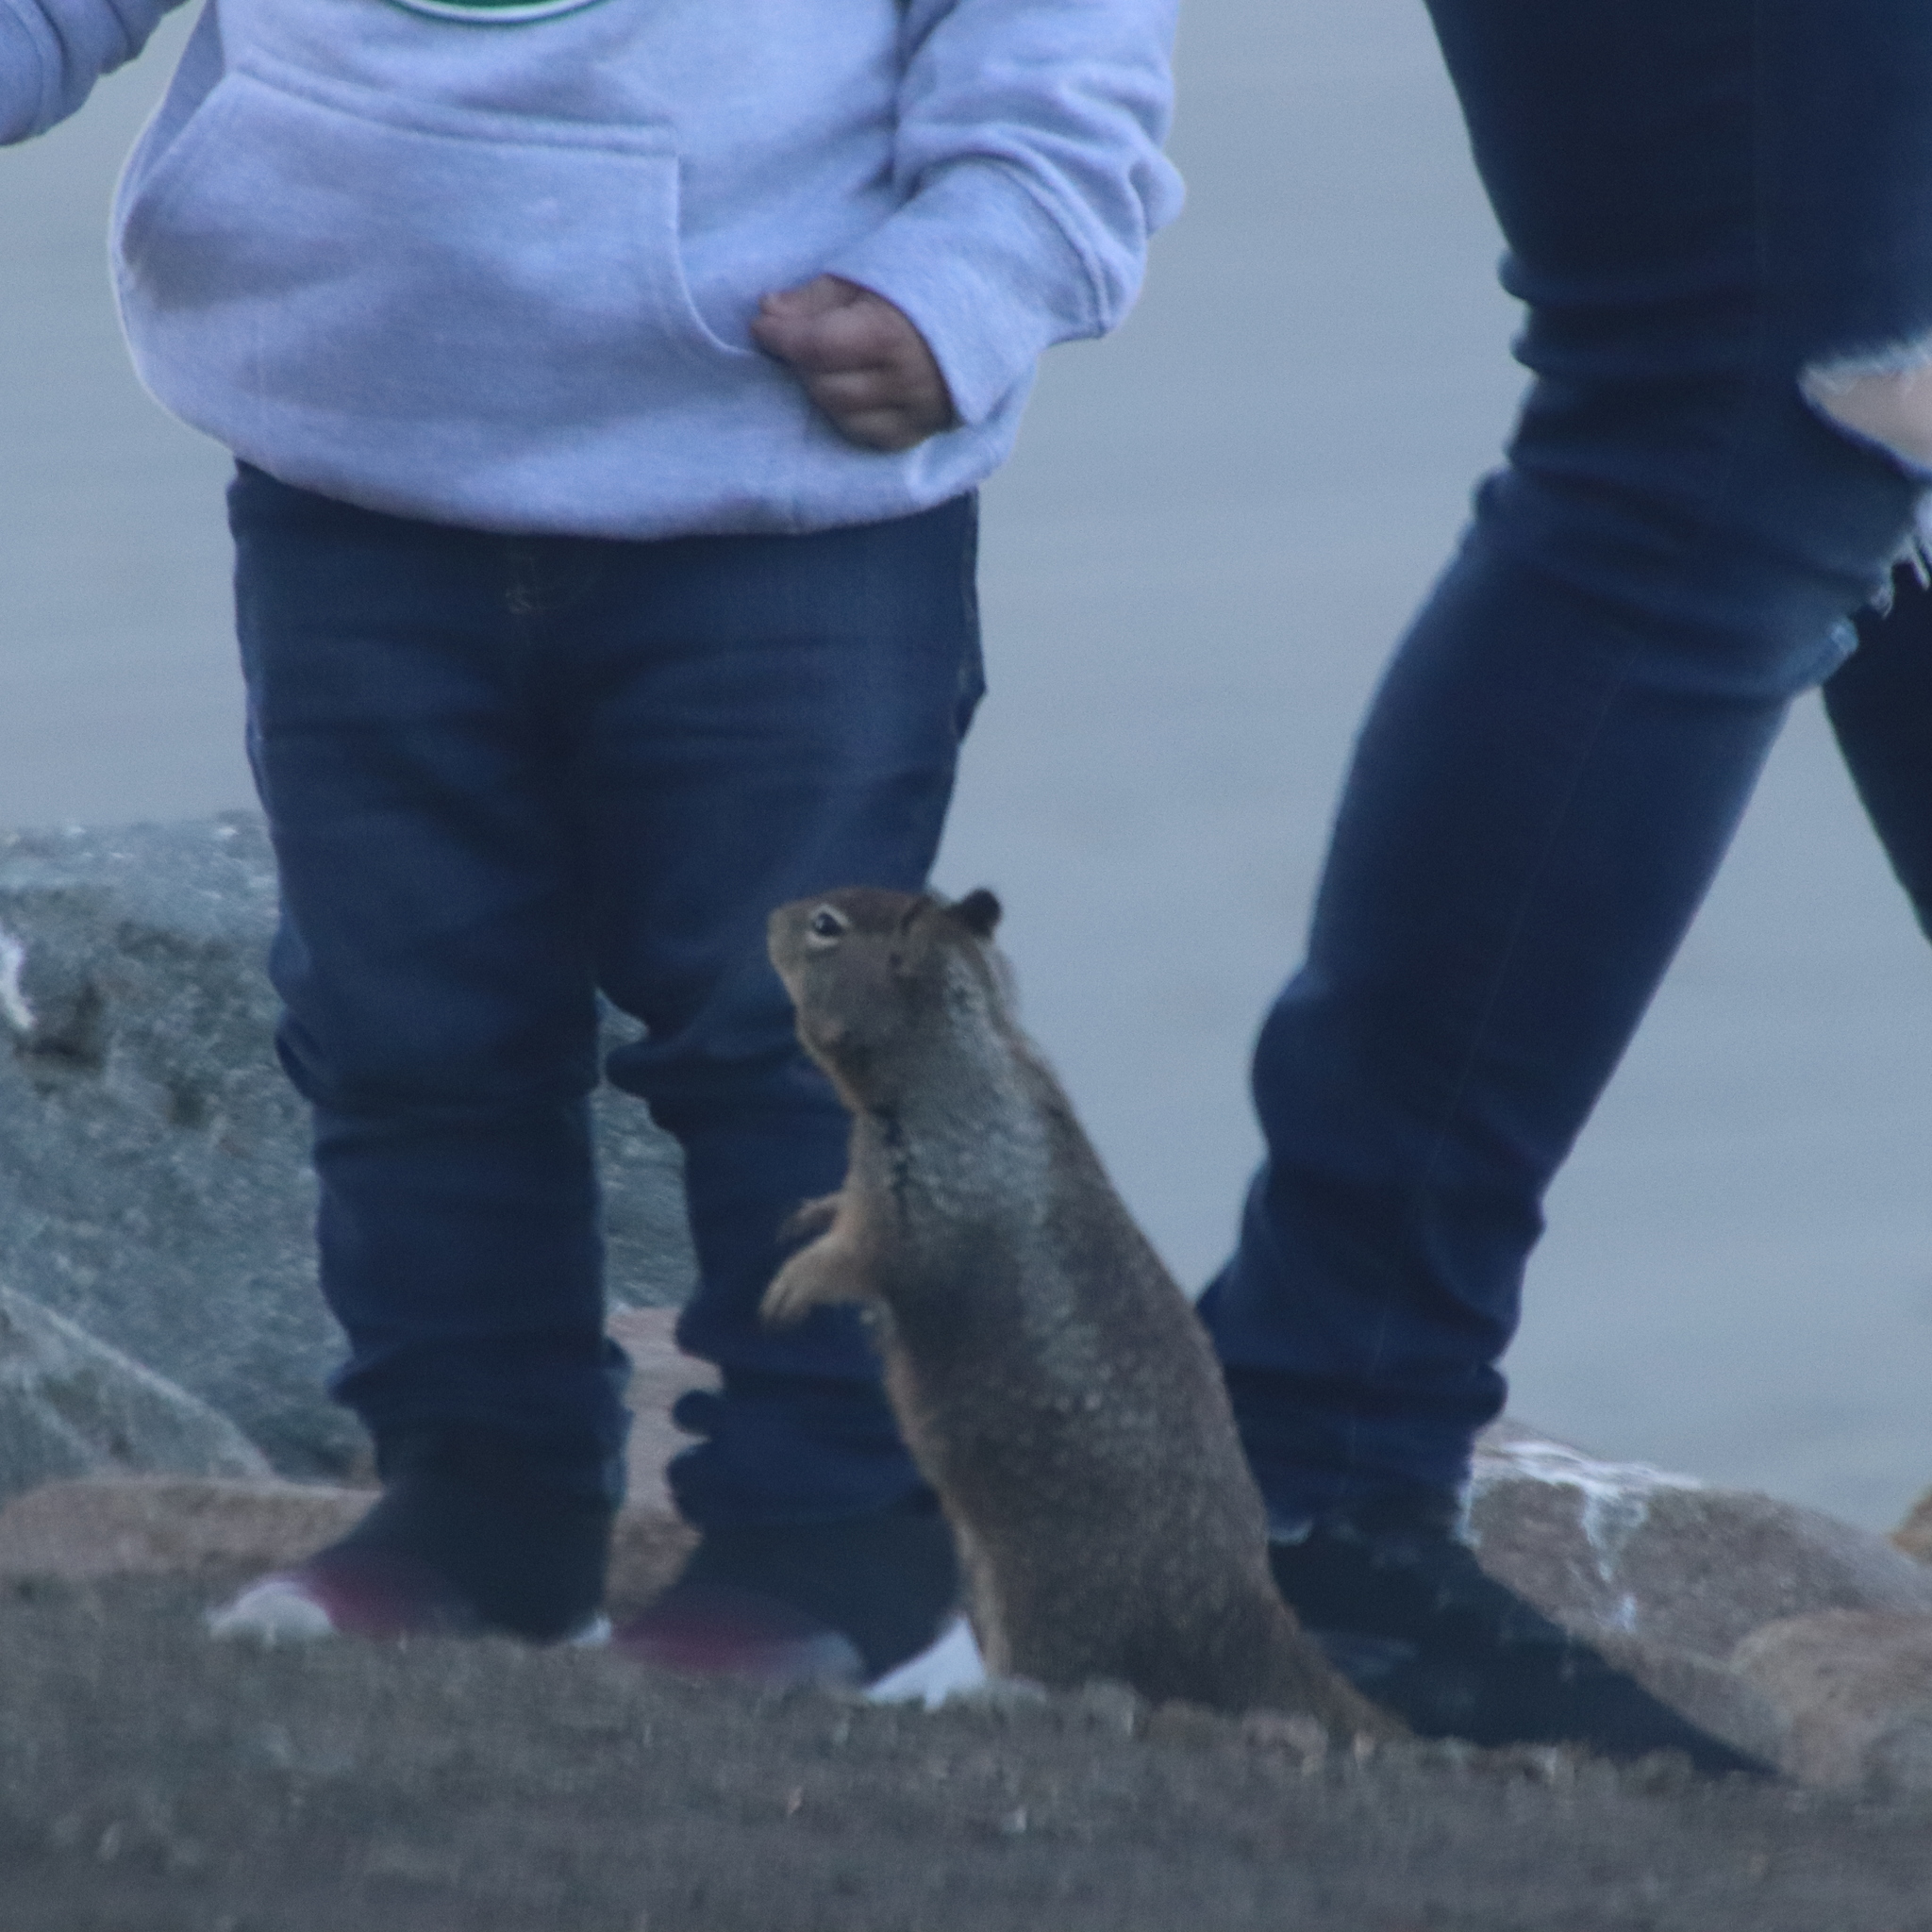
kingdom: Animalia
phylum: Chordata
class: Mammalia
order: Rodentia
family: Sciuridae
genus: Otospermophilus
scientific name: Otospermophilus beecheyi
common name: California ground squirrel
